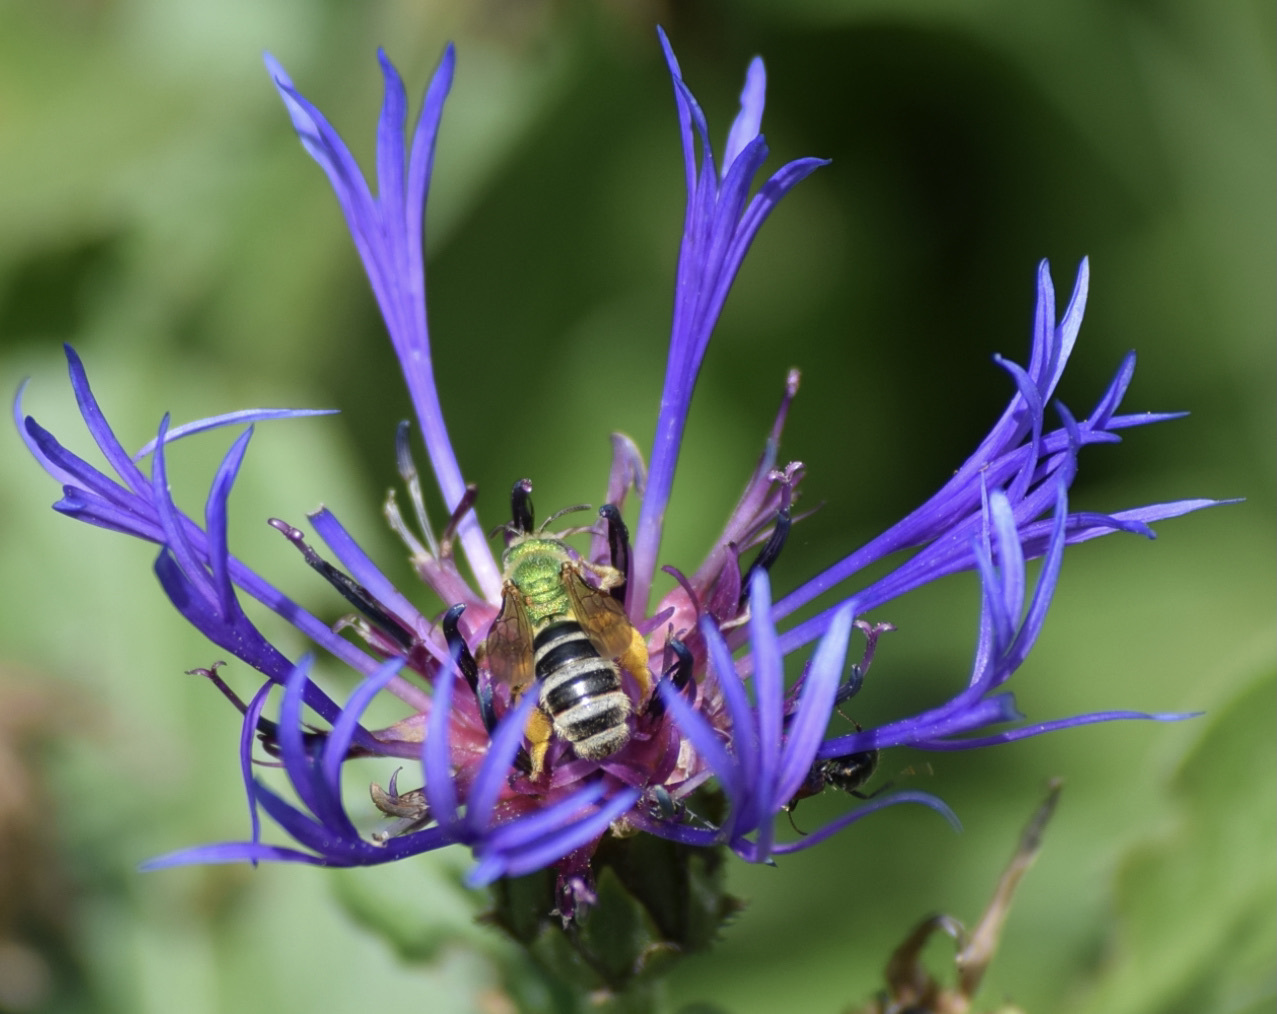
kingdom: Animalia
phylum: Arthropoda
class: Insecta
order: Hymenoptera
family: Halictidae
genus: Agapostemon
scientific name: Agapostemon virescens
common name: Bicolored striped sweat bee
